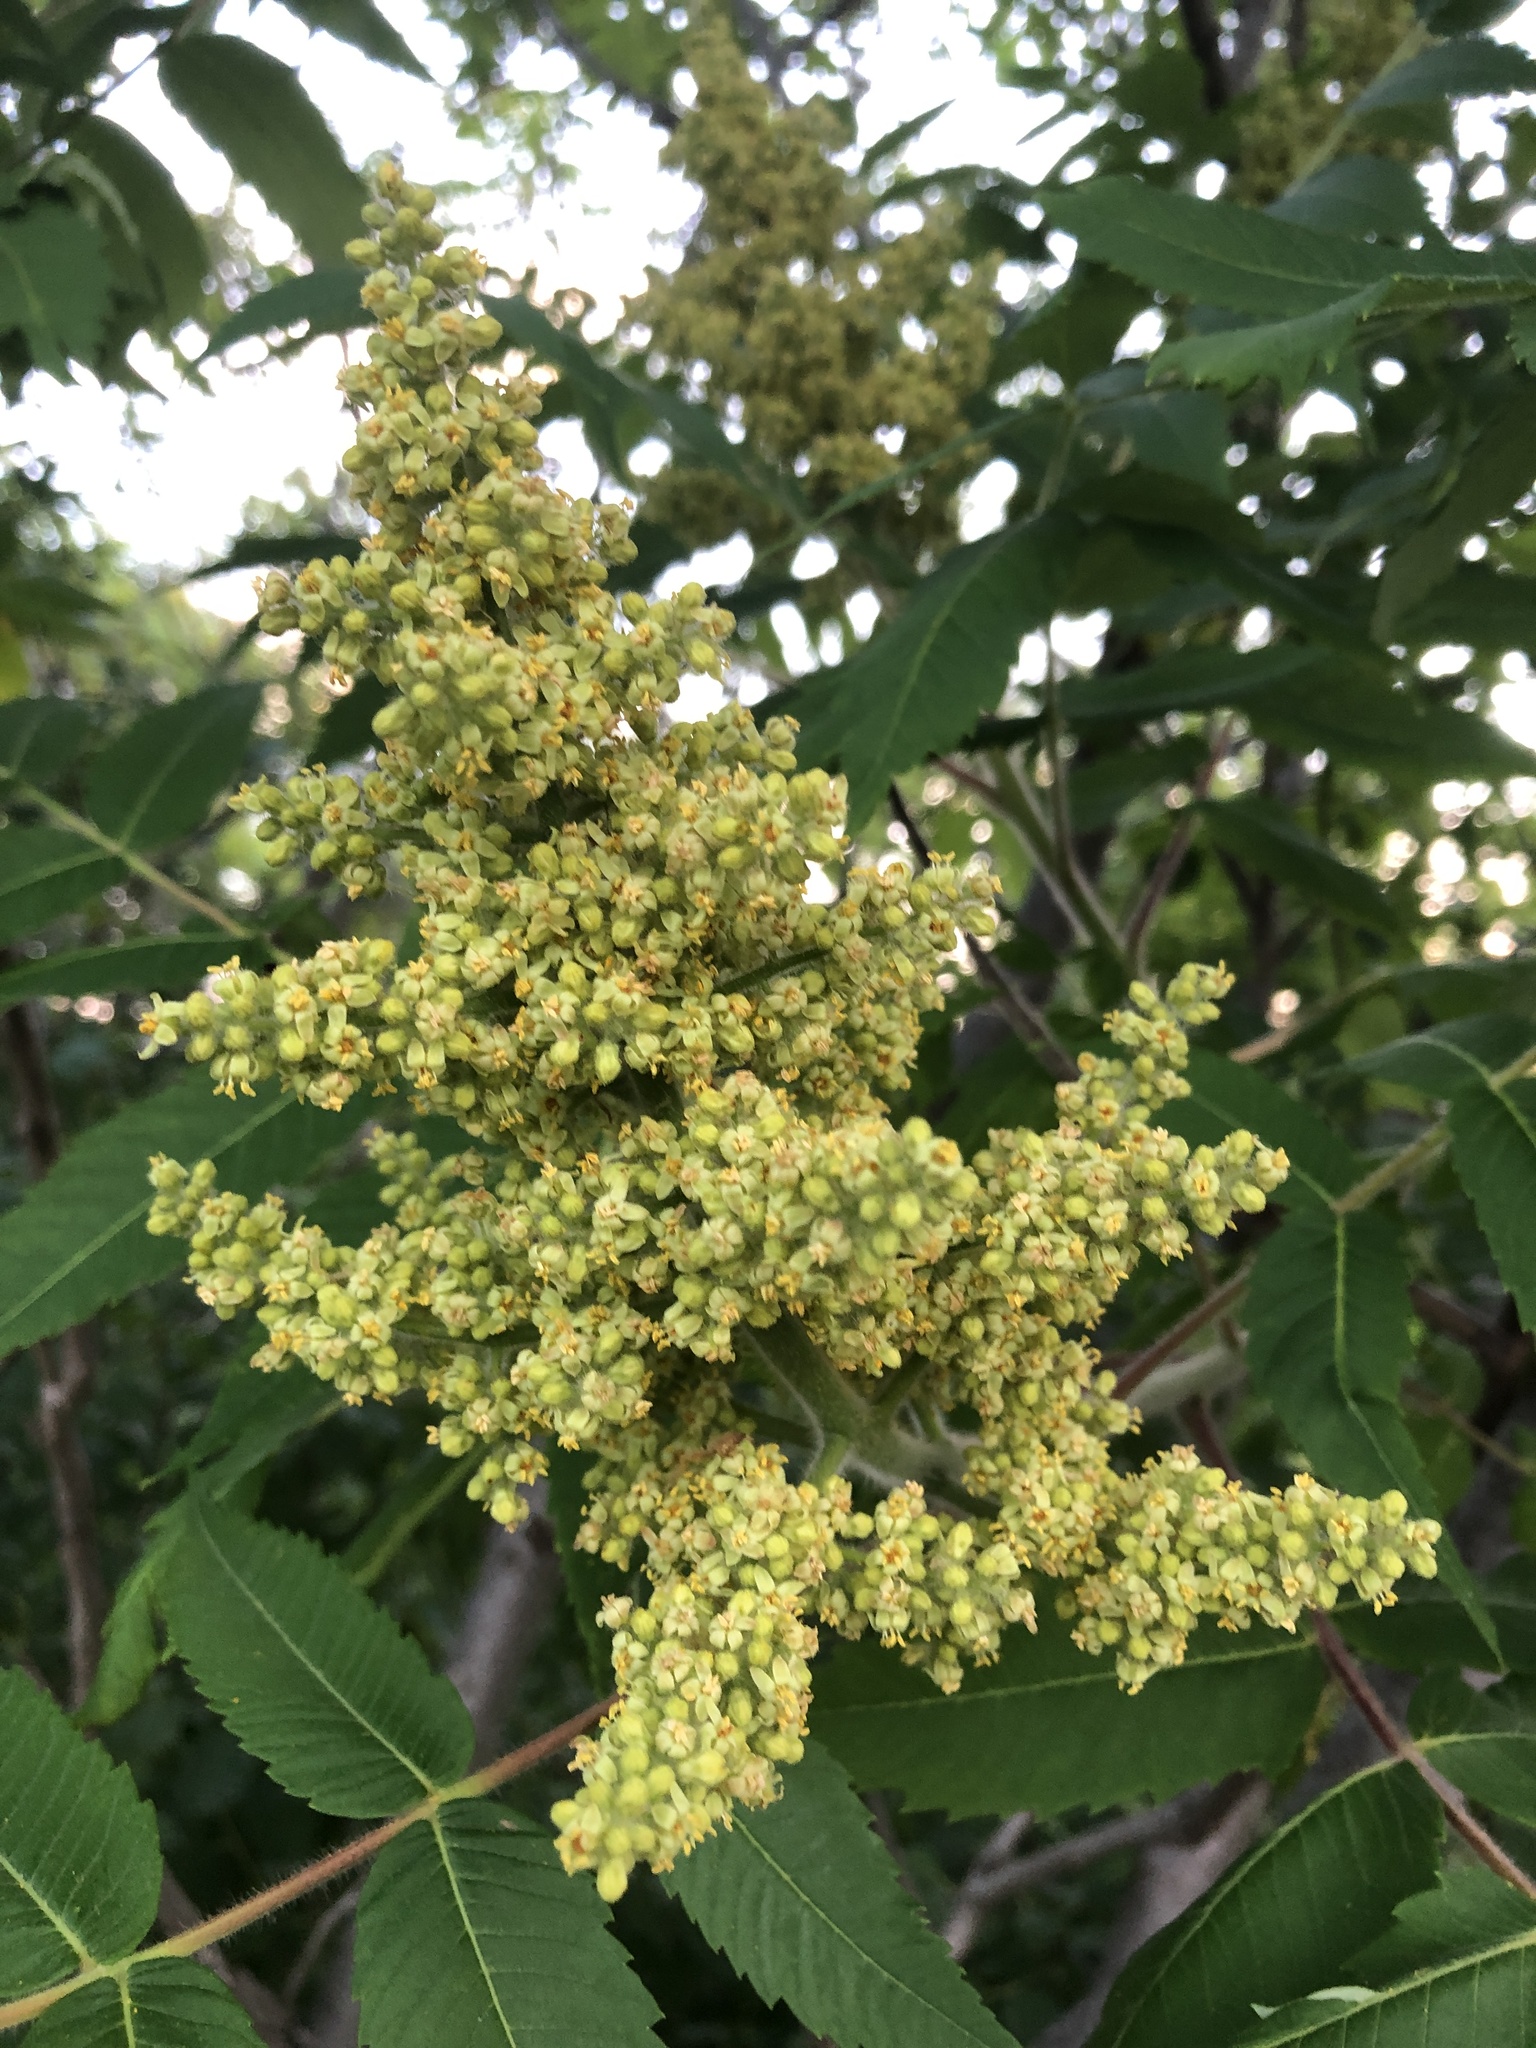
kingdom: Plantae
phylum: Tracheophyta
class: Magnoliopsida
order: Sapindales
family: Anacardiaceae
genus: Rhus
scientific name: Rhus typhina
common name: Staghorn sumac
